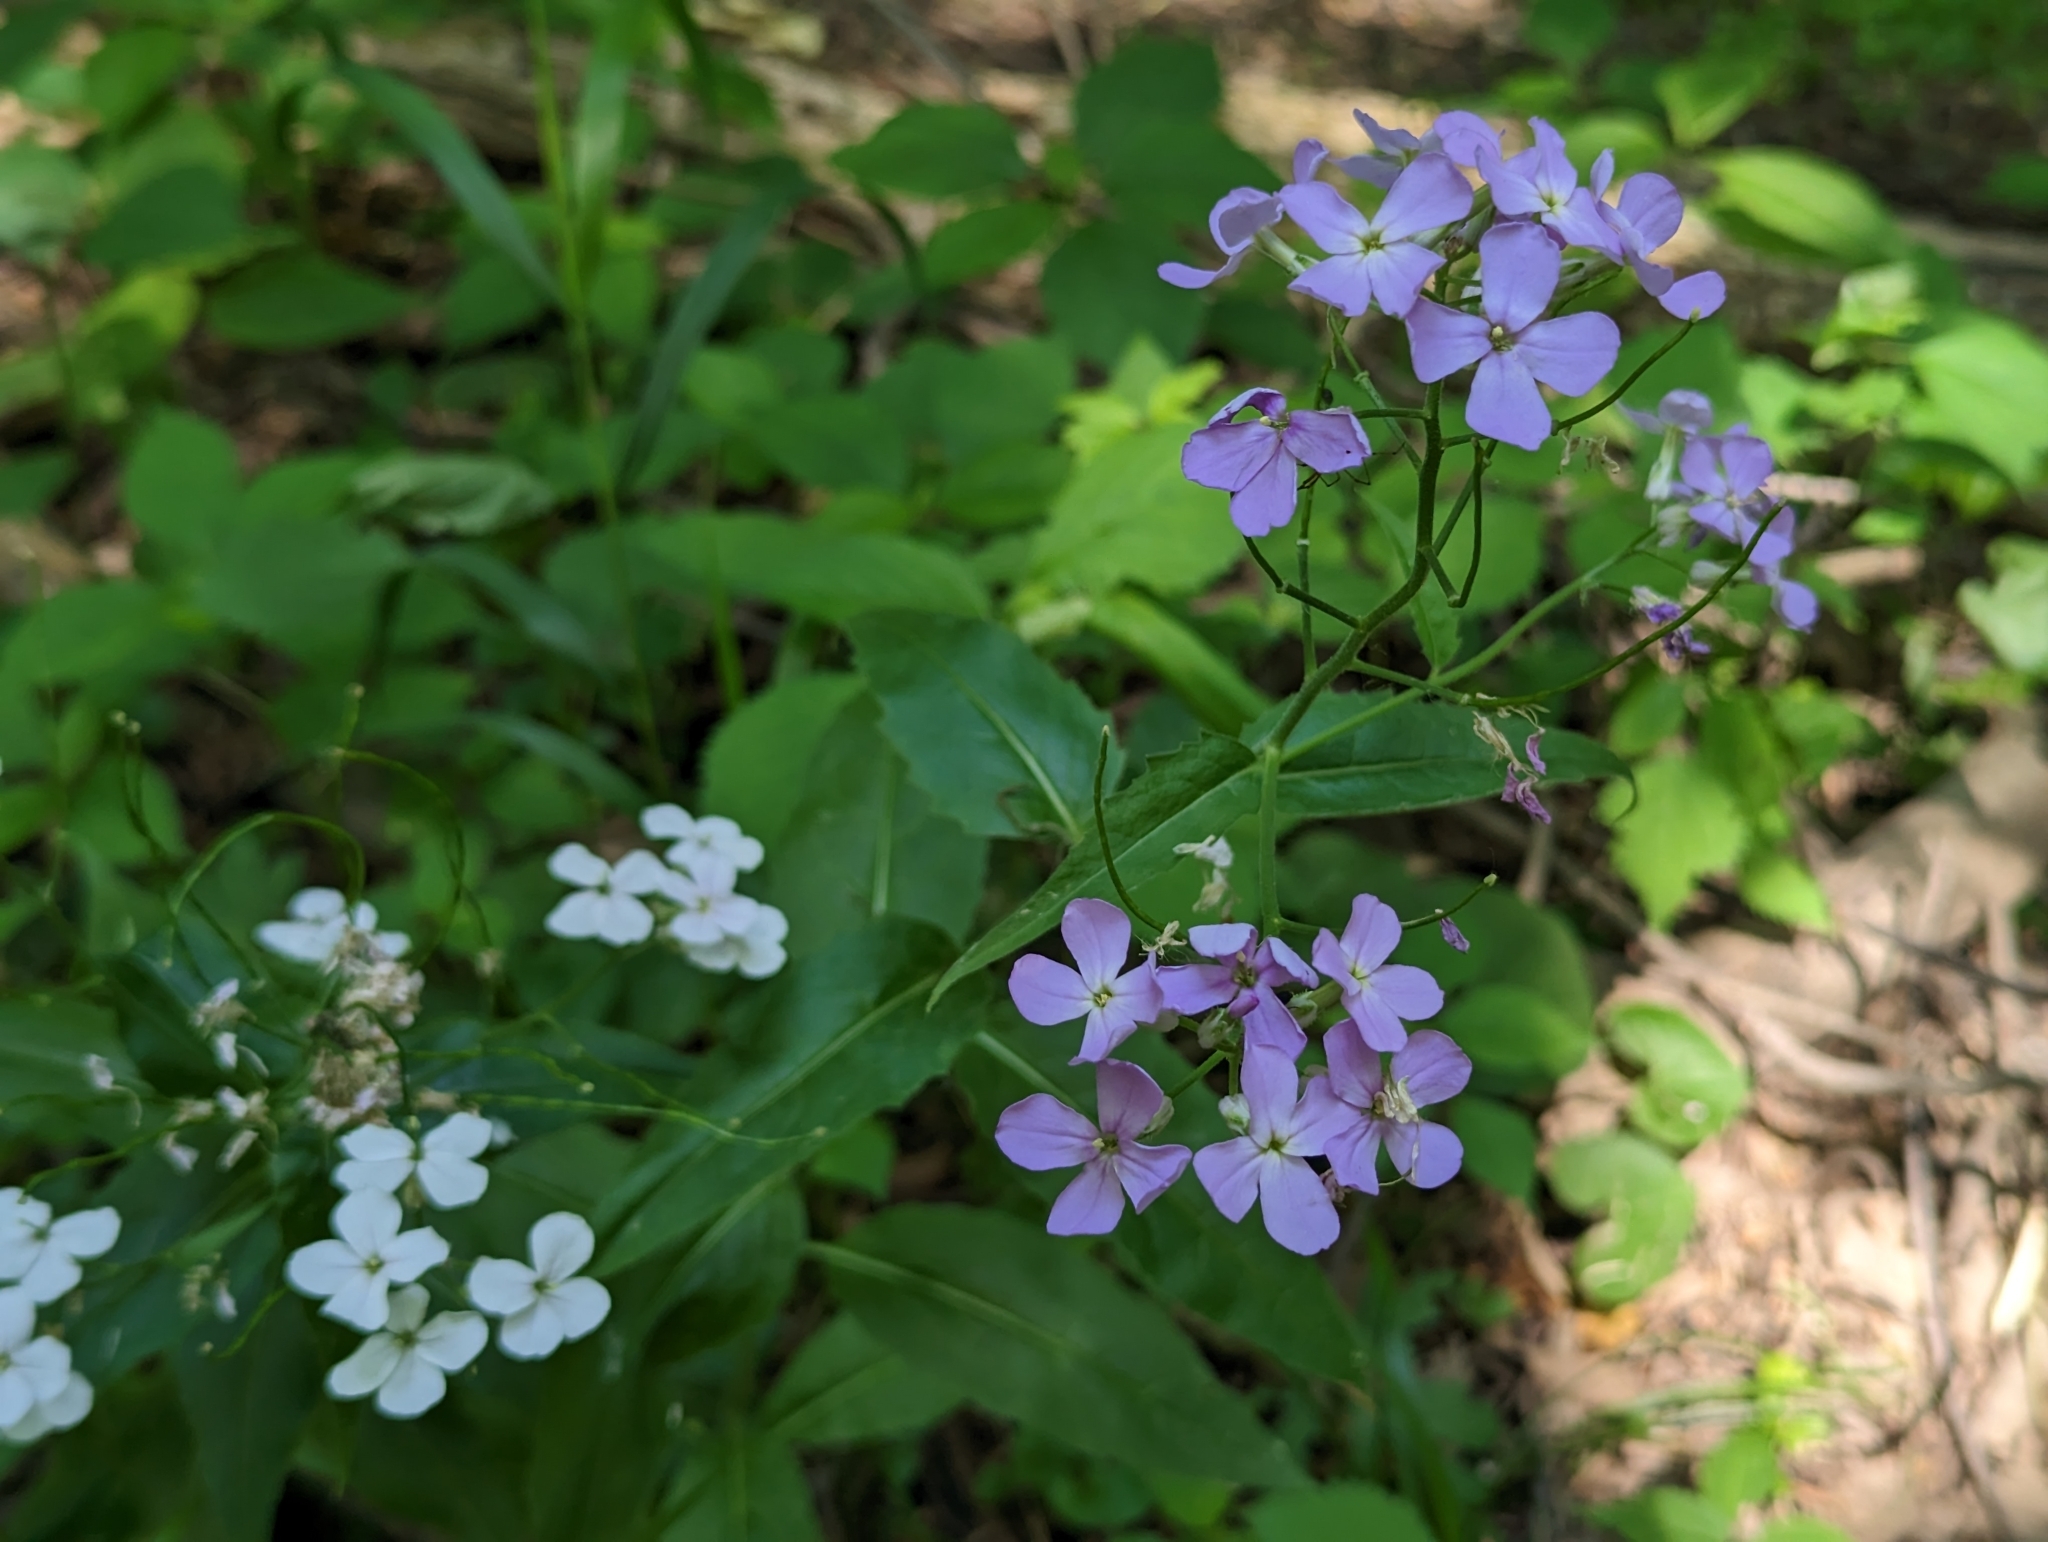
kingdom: Plantae
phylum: Tracheophyta
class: Magnoliopsida
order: Brassicales
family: Brassicaceae
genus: Hesperis
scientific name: Hesperis matronalis
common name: Dame's-violet
